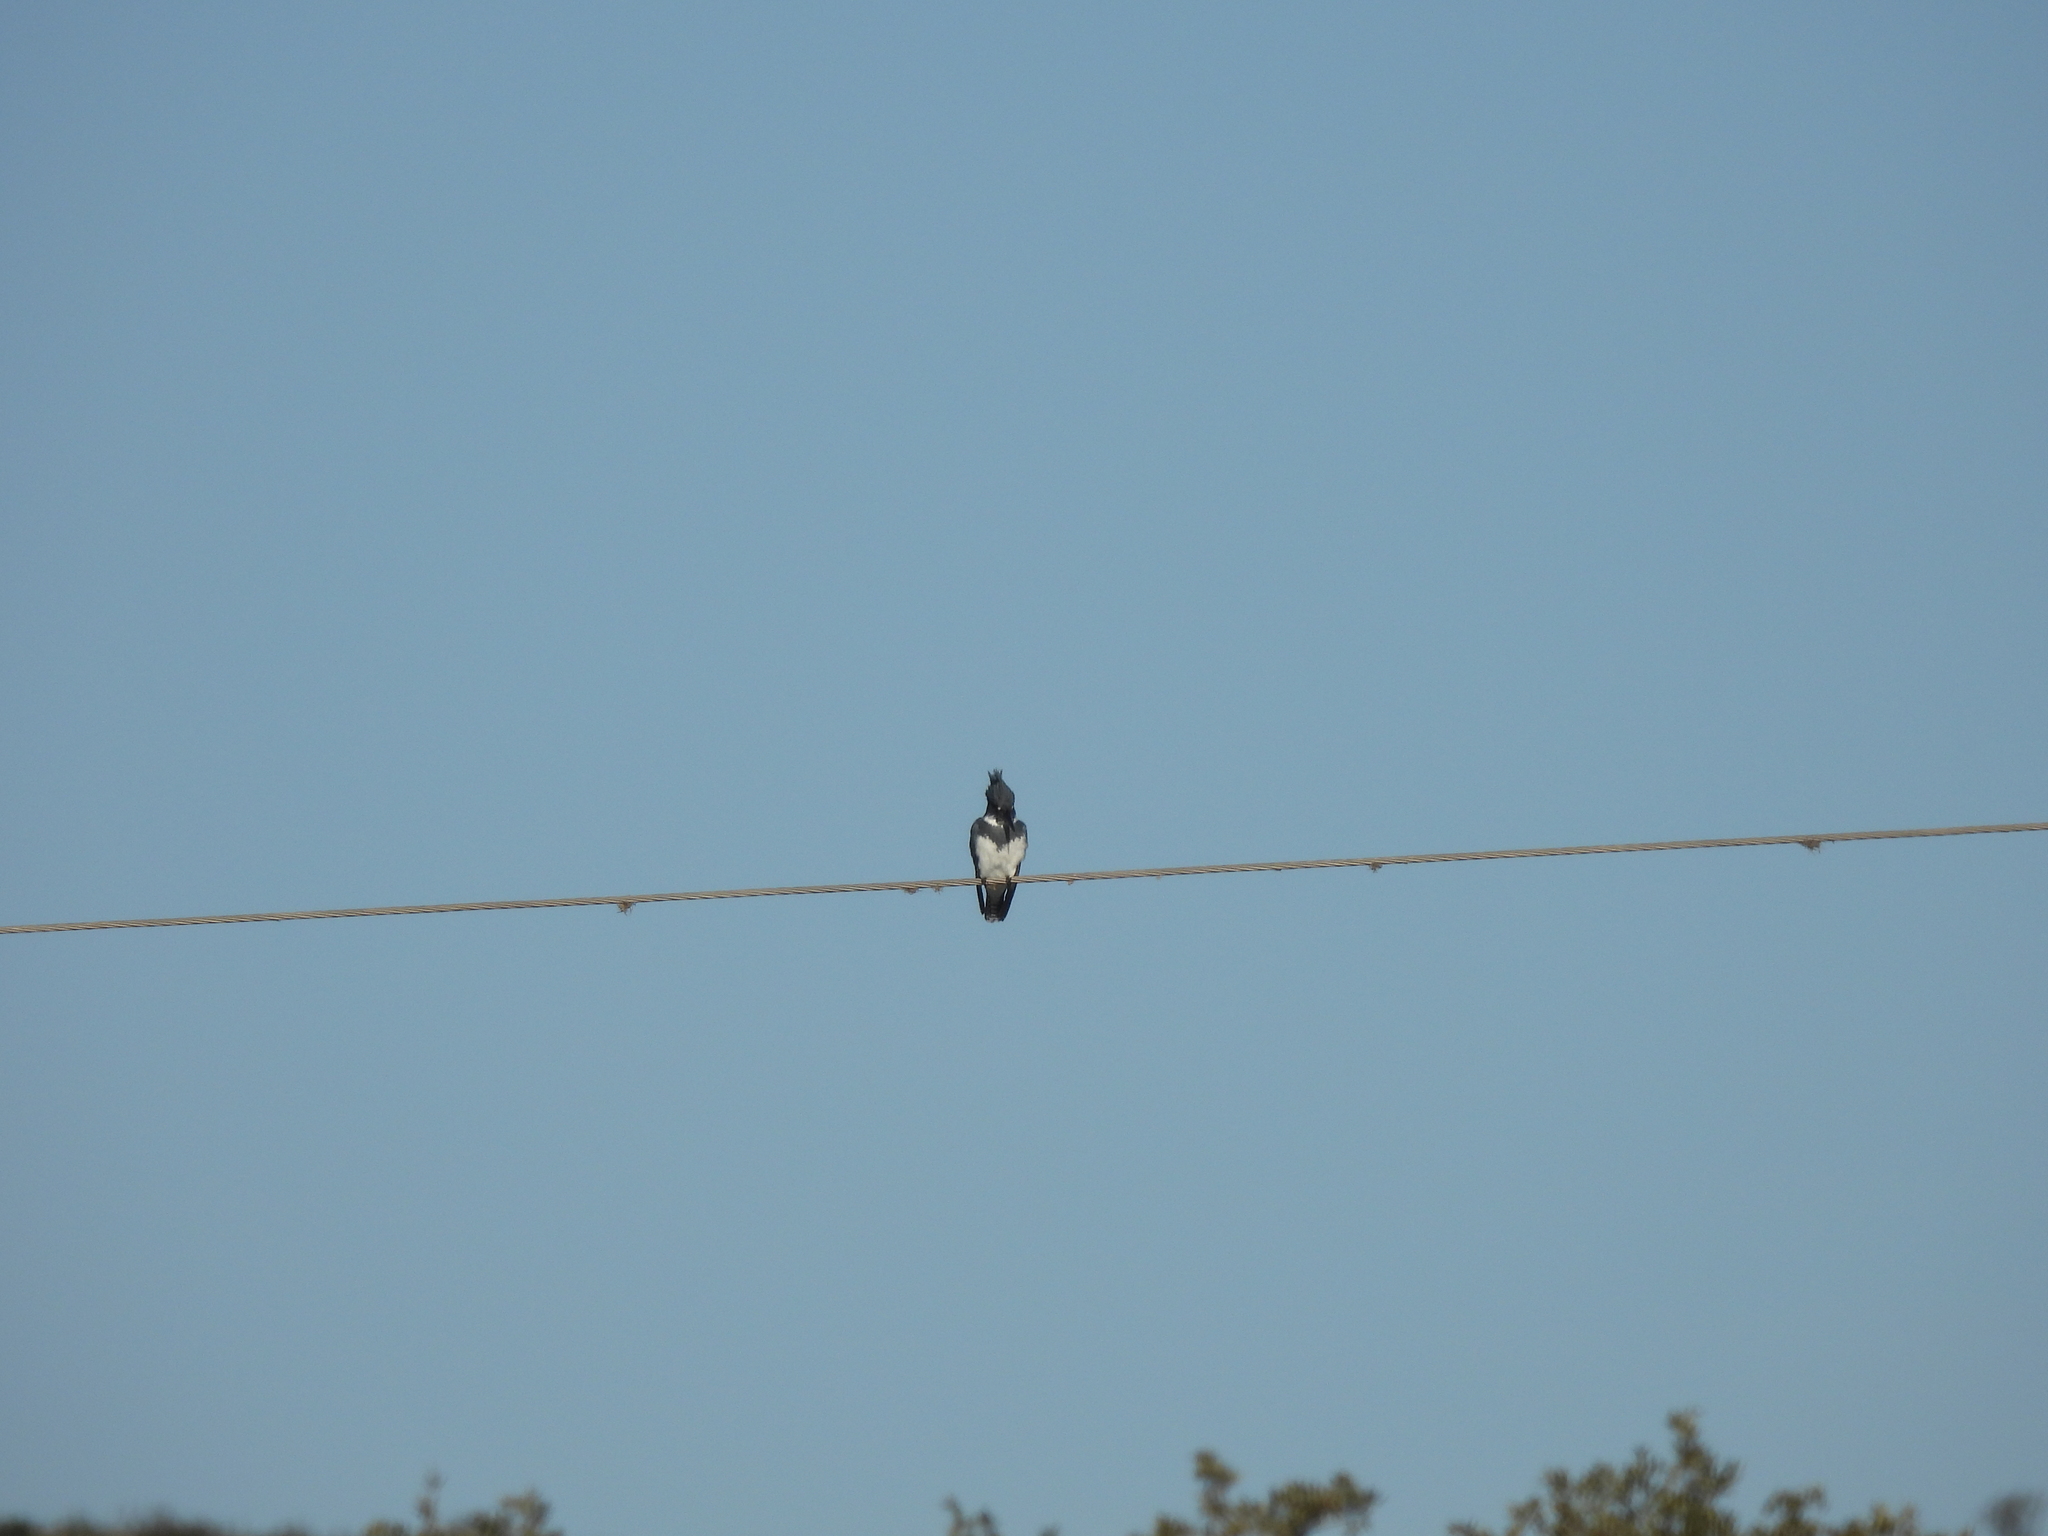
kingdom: Animalia
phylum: Chordata
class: Aves
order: Coraciiformes
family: Alcedinidae
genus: Megaceryle
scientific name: Megaceryle alcyon
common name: Belted kingfisher
